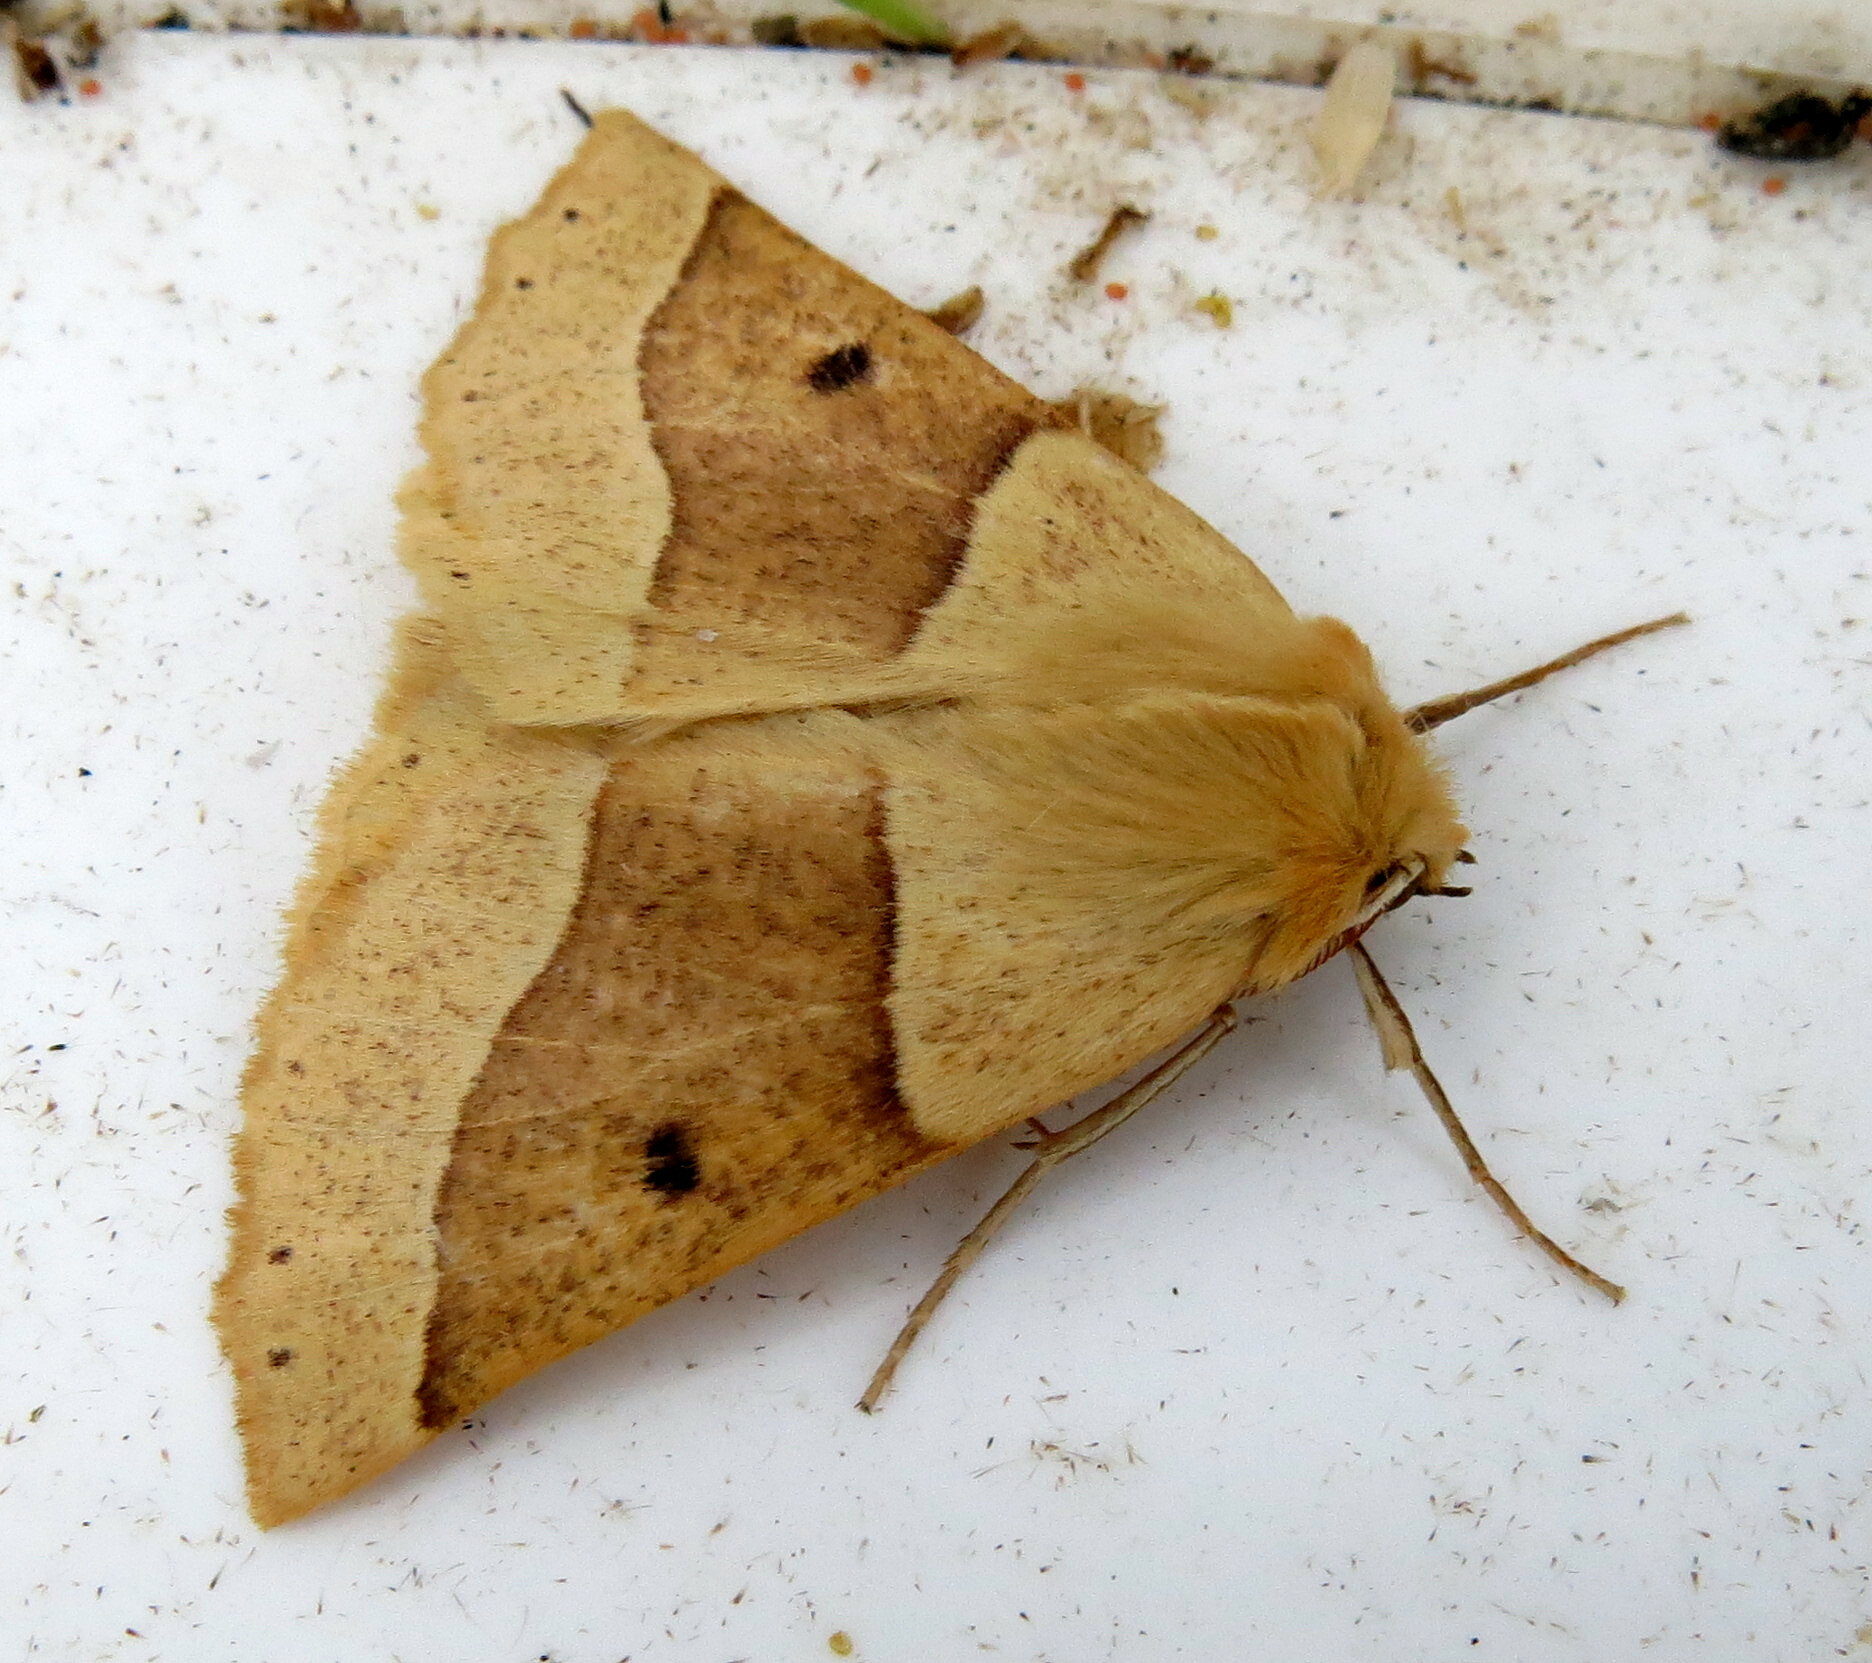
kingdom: Animalia
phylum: Arthropoda
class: Insecta
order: Lepidoptera
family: Geometridae
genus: Crocallis
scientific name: Crocallis elinguaria
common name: Scalloped oak
